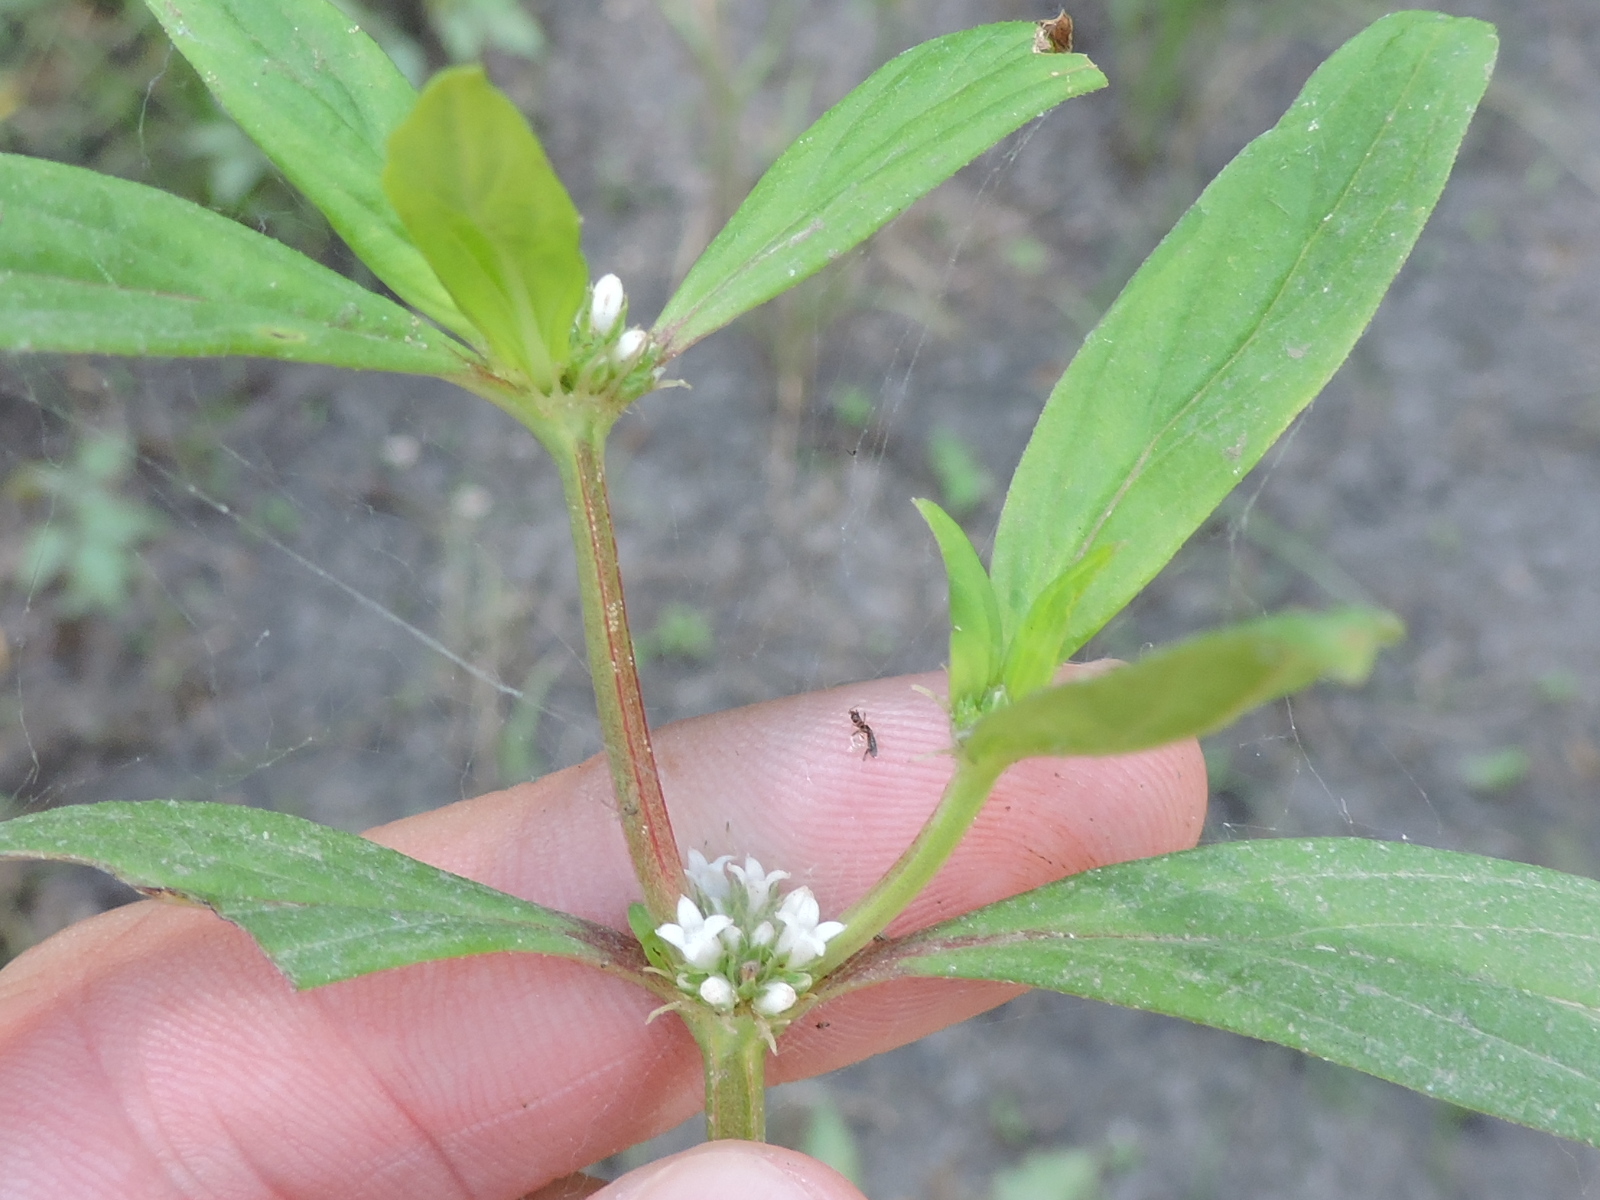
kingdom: Plantae
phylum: Tracheophyta
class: Magnoliopsida
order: Gentianales
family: Rubiaceae
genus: Spermacoce
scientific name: Spermacoce glabra
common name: Smooth buttonweed
